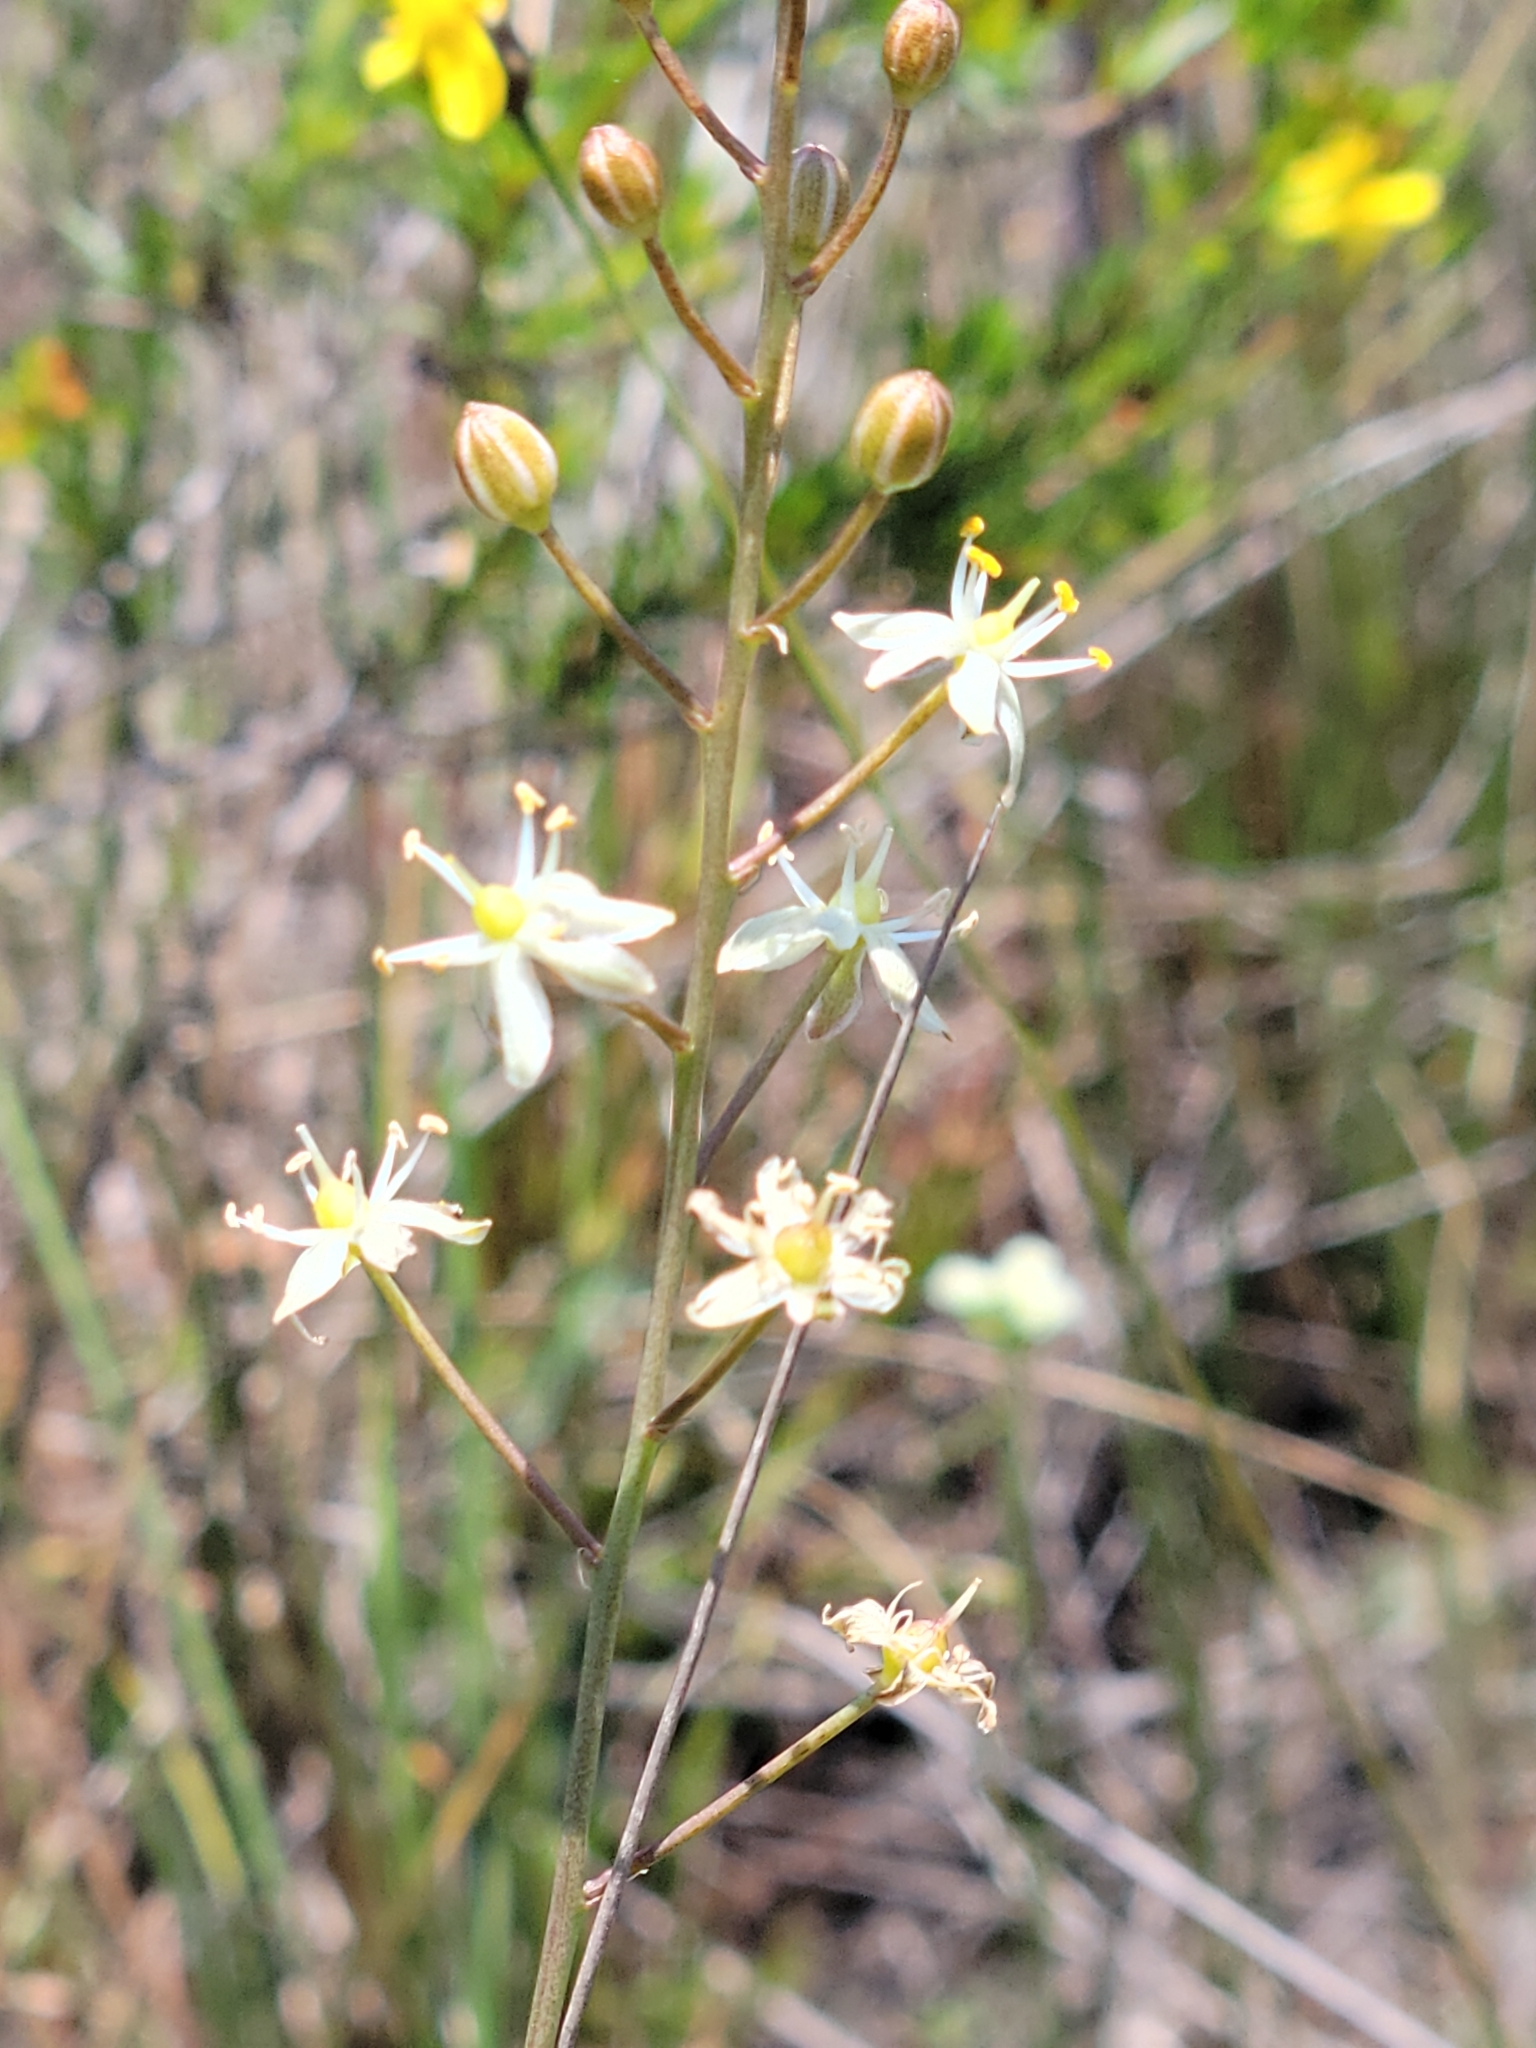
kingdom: Plantae
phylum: Tracheophyta
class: Liliopsida
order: Asparagales
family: Asparagaceae
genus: Schoenolirion
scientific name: Schoenolirion albiflorum
